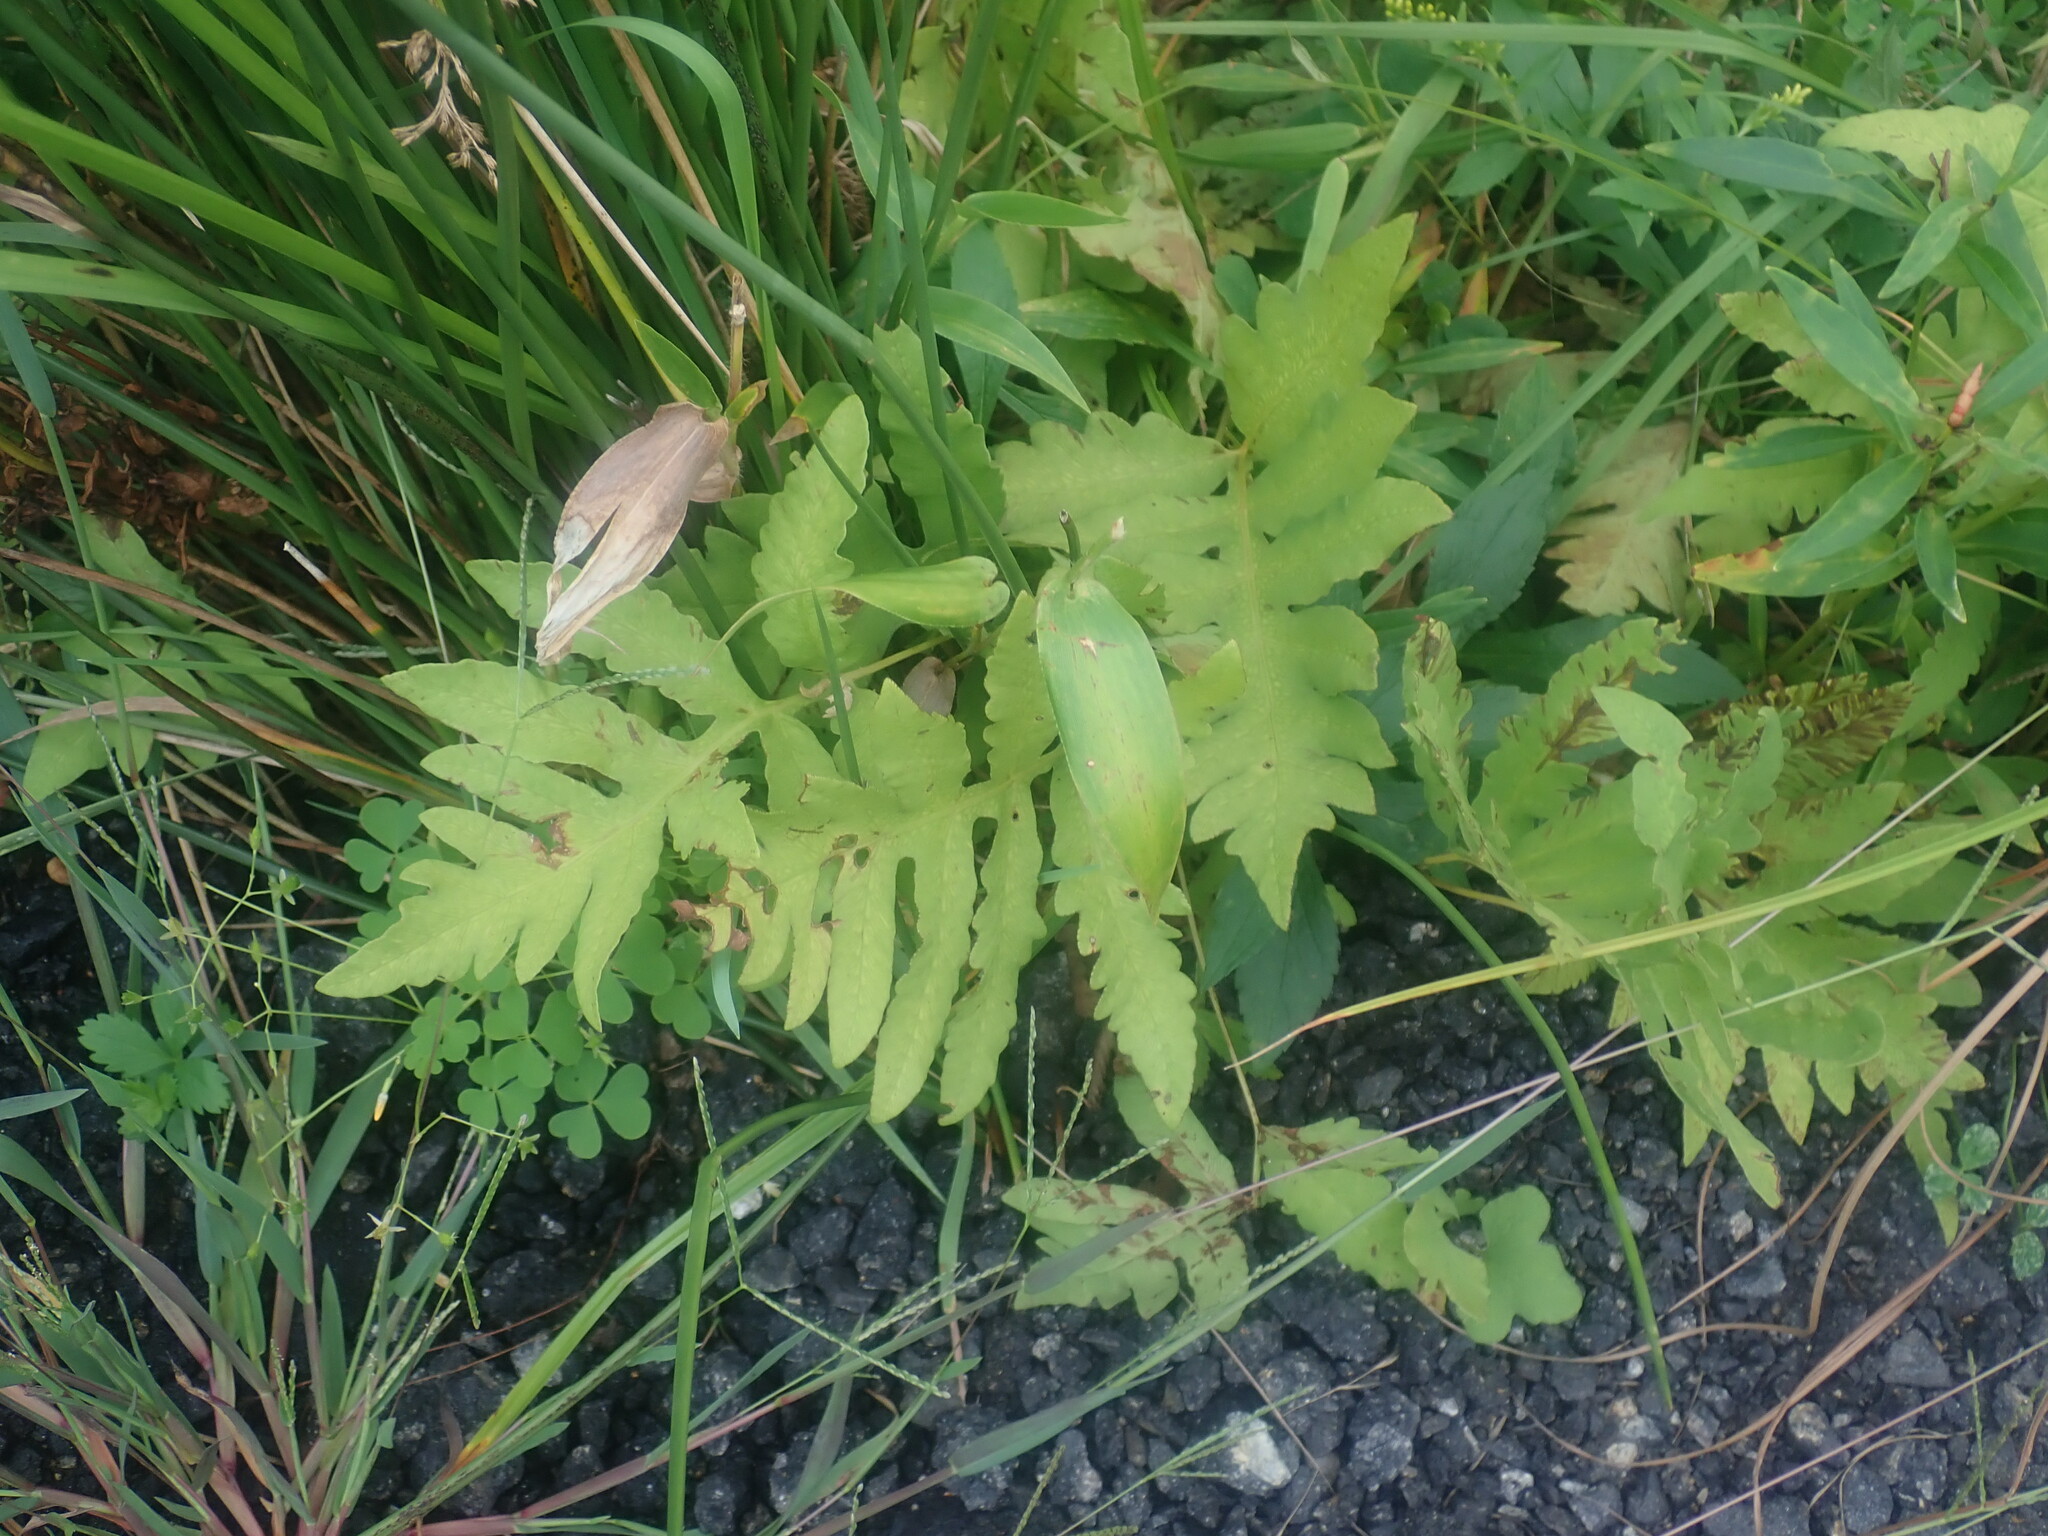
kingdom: Plantae
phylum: Tracheophyta
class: Polypodiopsida
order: Polypodiales
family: Onocleaceae
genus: Onoclea
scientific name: Onoclea sensibilis
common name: Sensitive fern
